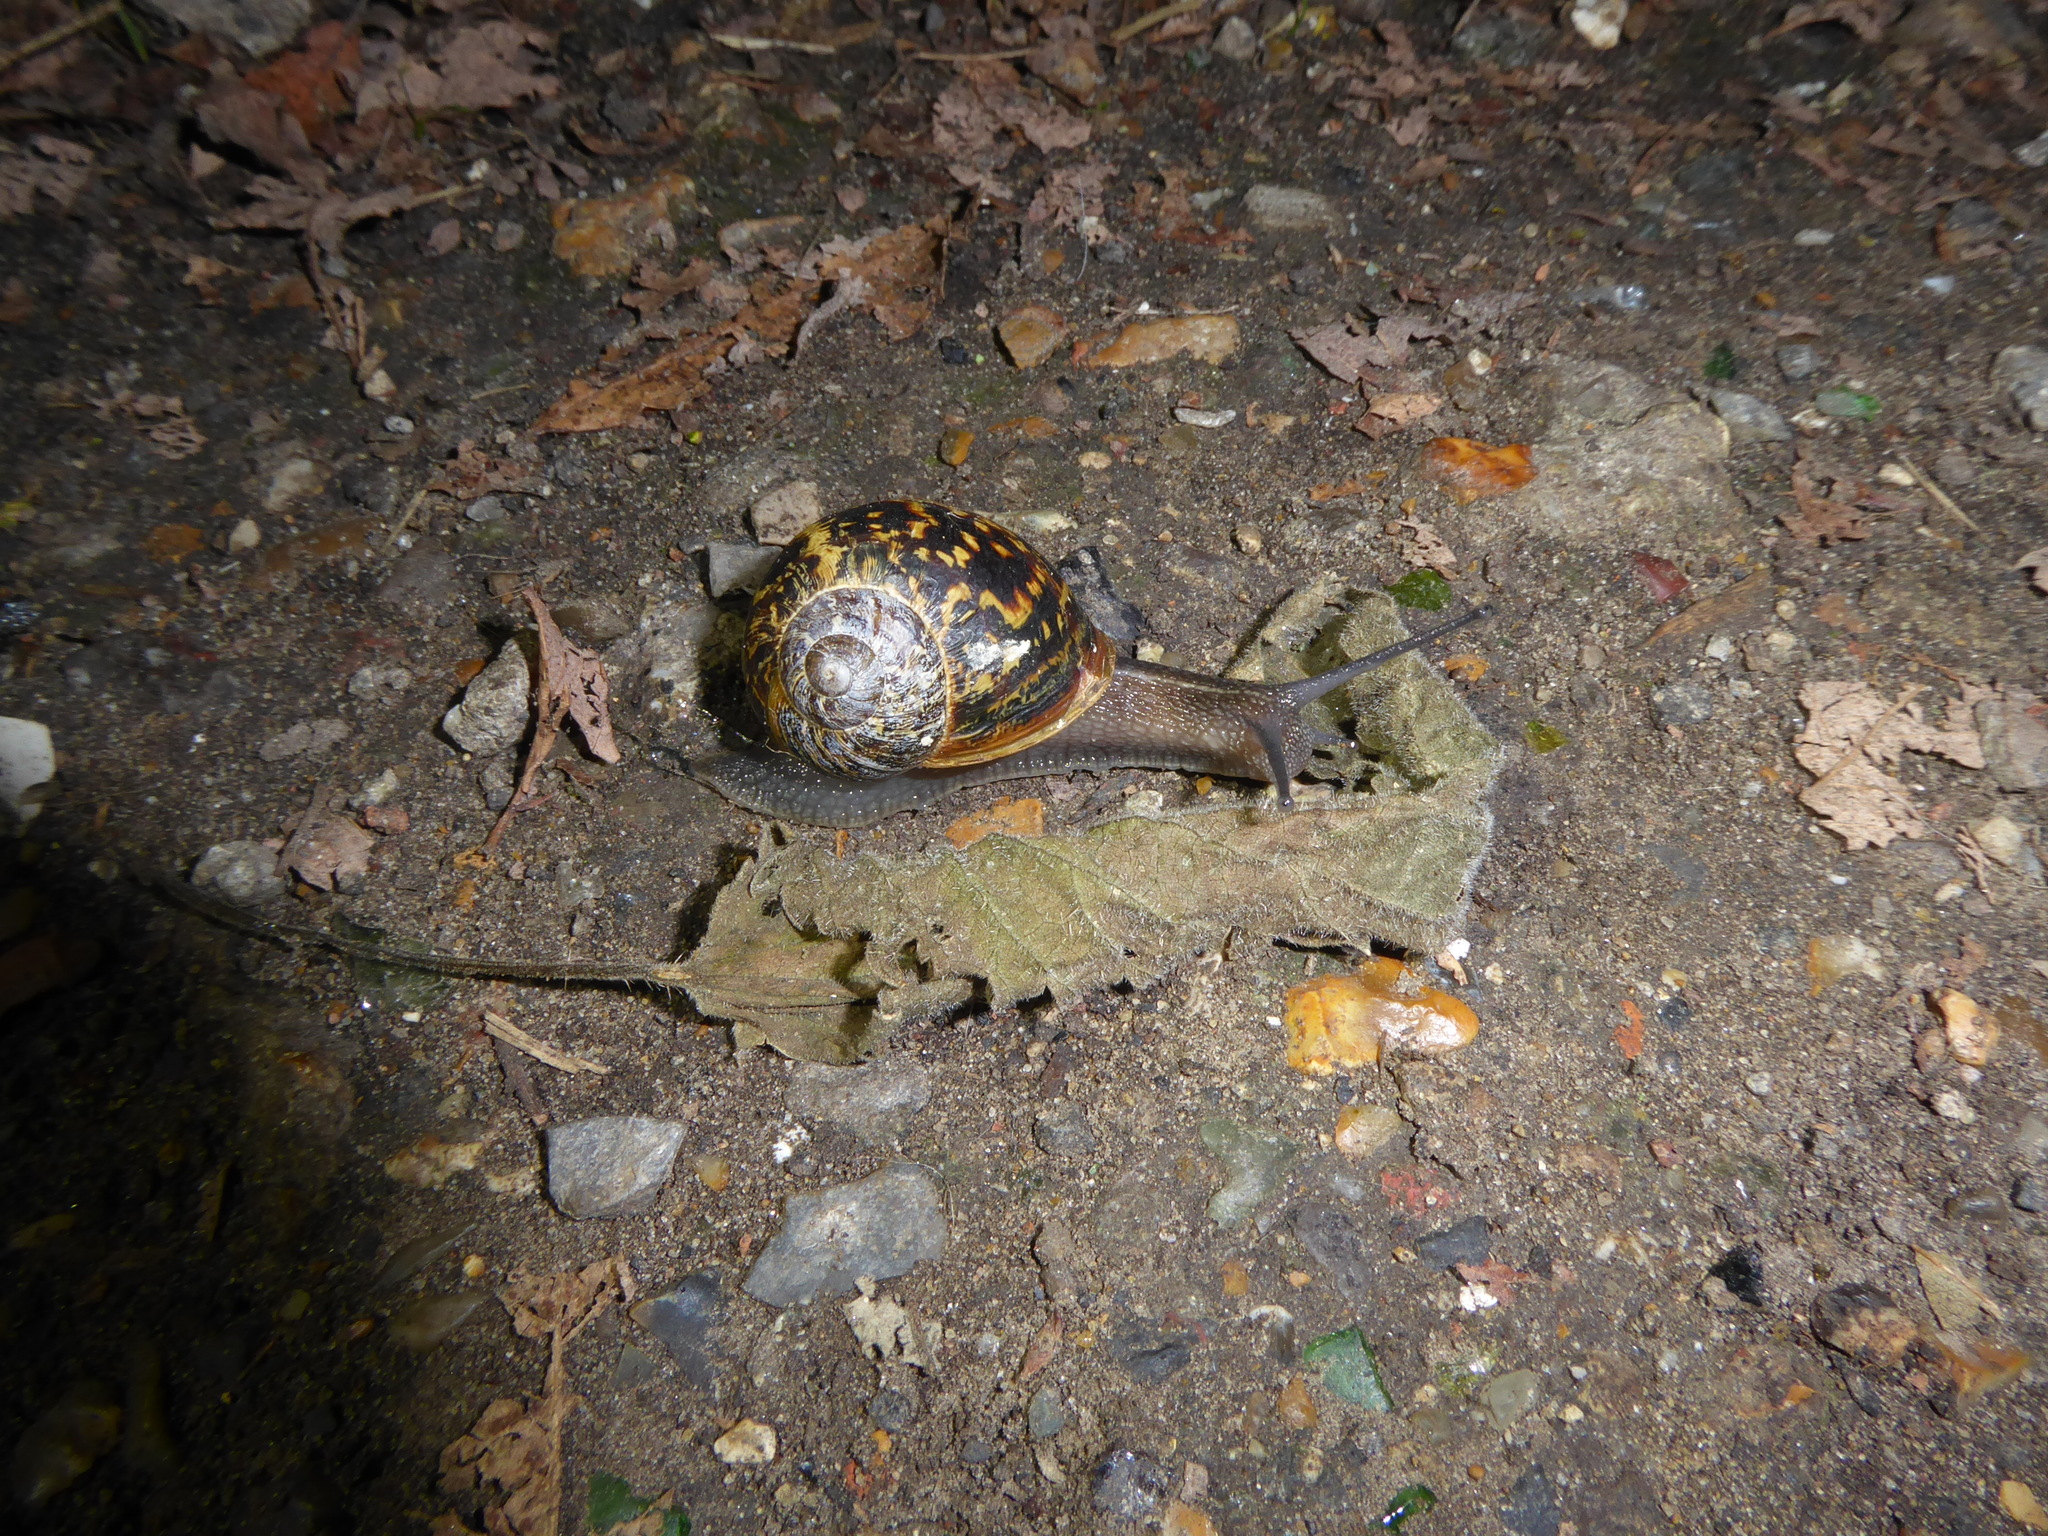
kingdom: Animalia
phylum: Mollusca
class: Gastropoda
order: Stylommatophora
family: Helicidae
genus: Cornu
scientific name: Cornu aspersum
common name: Brown garden snail
